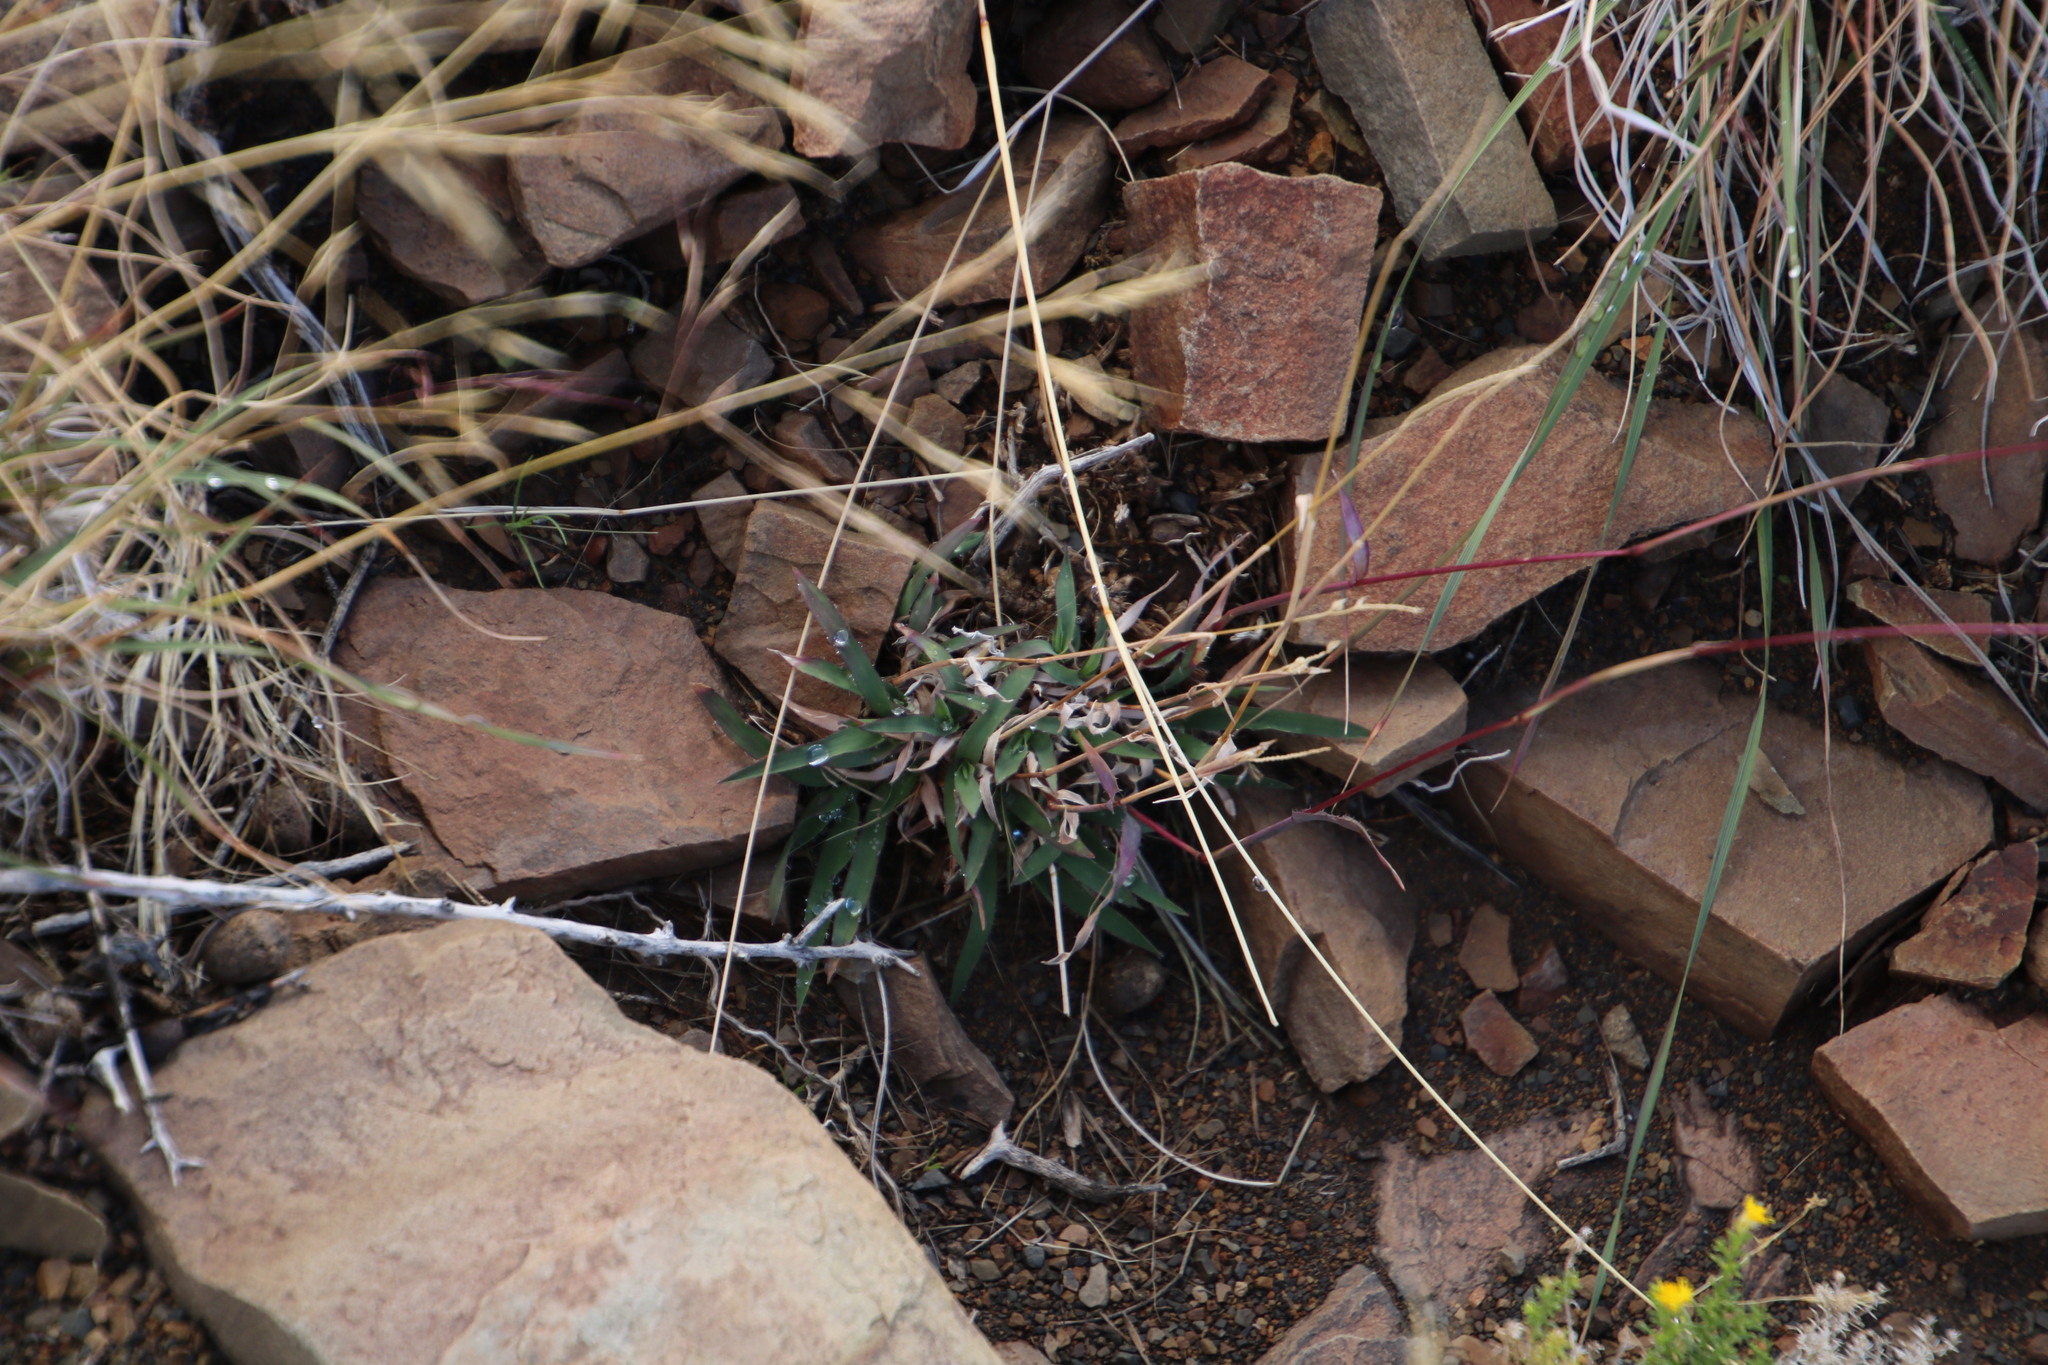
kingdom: Plantae
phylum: Tracheophyta
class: Liliopsida
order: Poales
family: Poaceae
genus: Tragus
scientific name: Tragus berteronianus
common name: African bur-grass
